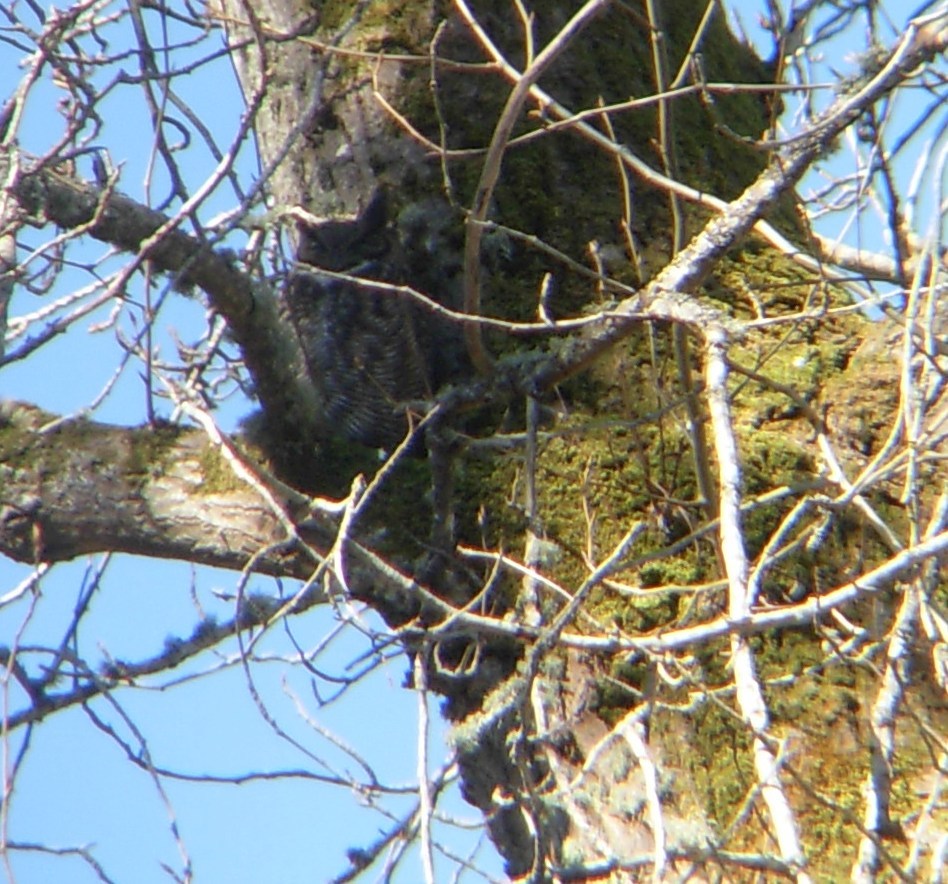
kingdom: Animalia
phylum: Chordata
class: Aves
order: Strigiformes
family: Strigidae
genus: Bubo
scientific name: Bubo virginianus
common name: Great horned owl
